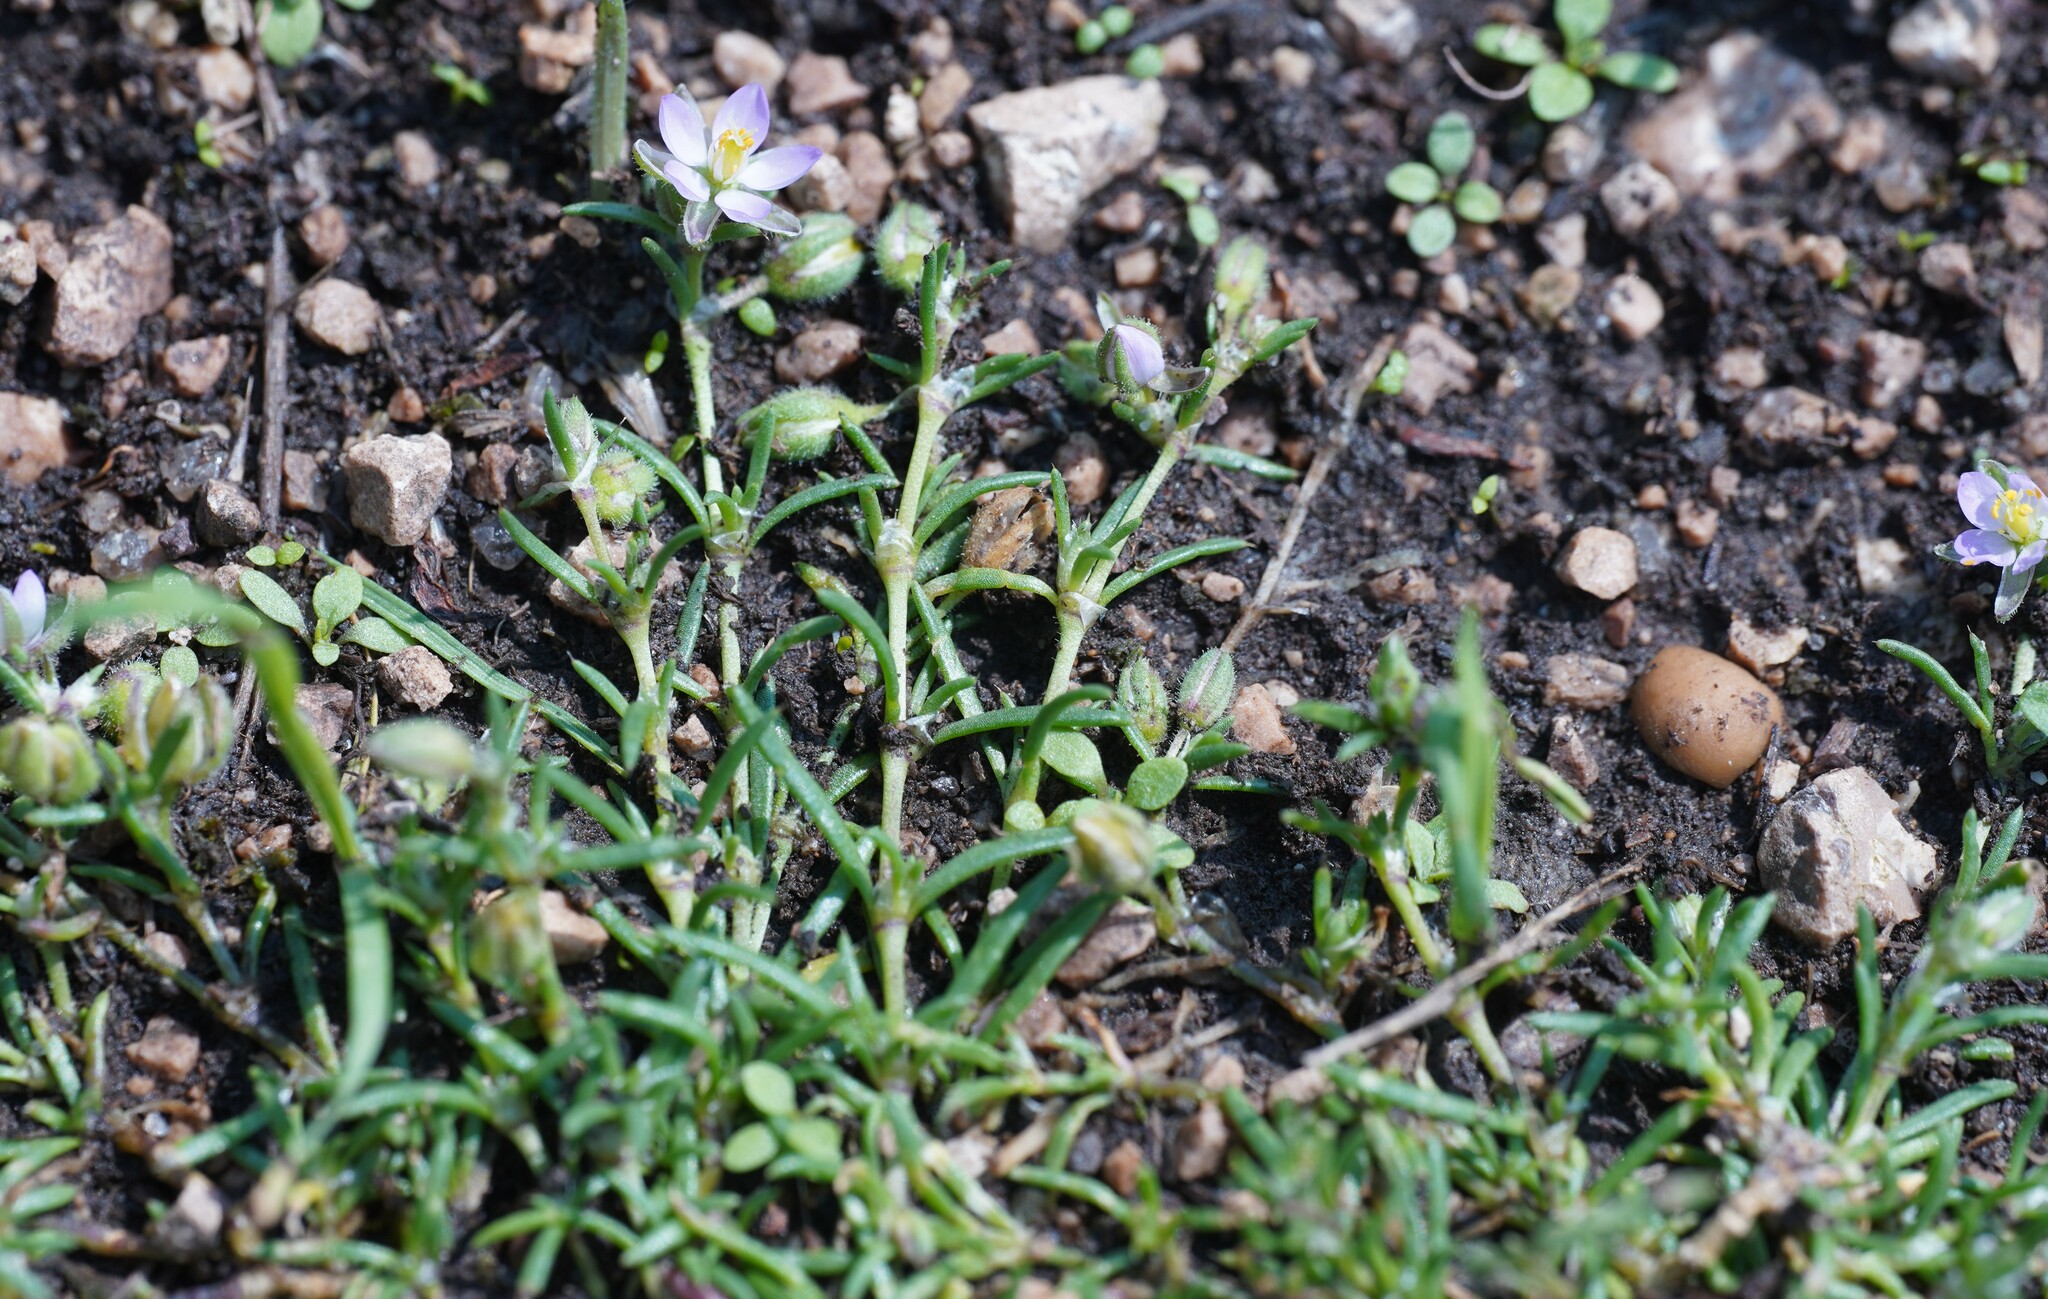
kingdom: Plantae
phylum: Tracheophyta
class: Magnoliopsida
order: Caryophyllales
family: Caryophyllaceae
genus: Spergularia
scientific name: Spergularia rubra
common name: Red sand-spurrey
